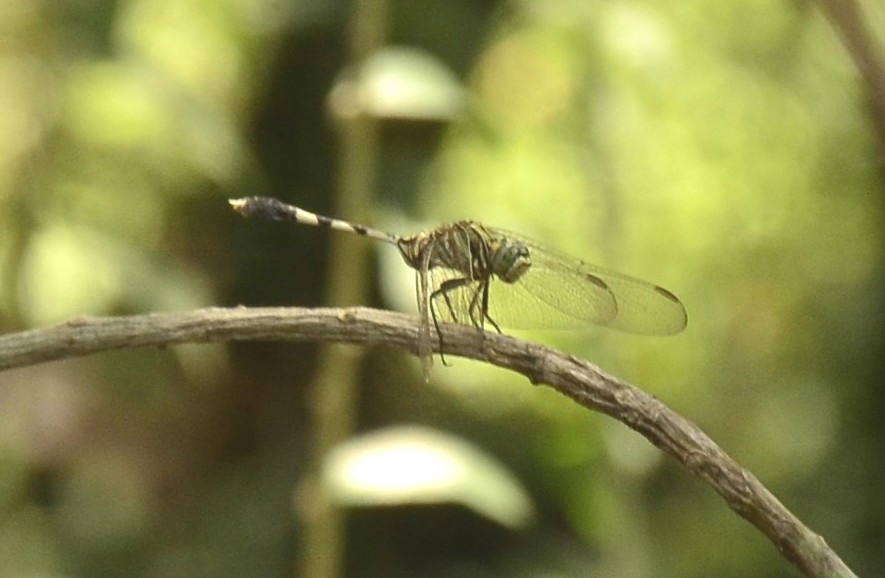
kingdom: Animalia
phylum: Arthropoda
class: Insecta
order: Odonata
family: Libellulidae
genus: Orthetrum
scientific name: Orthetrum sabina
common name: Slender skimmer
